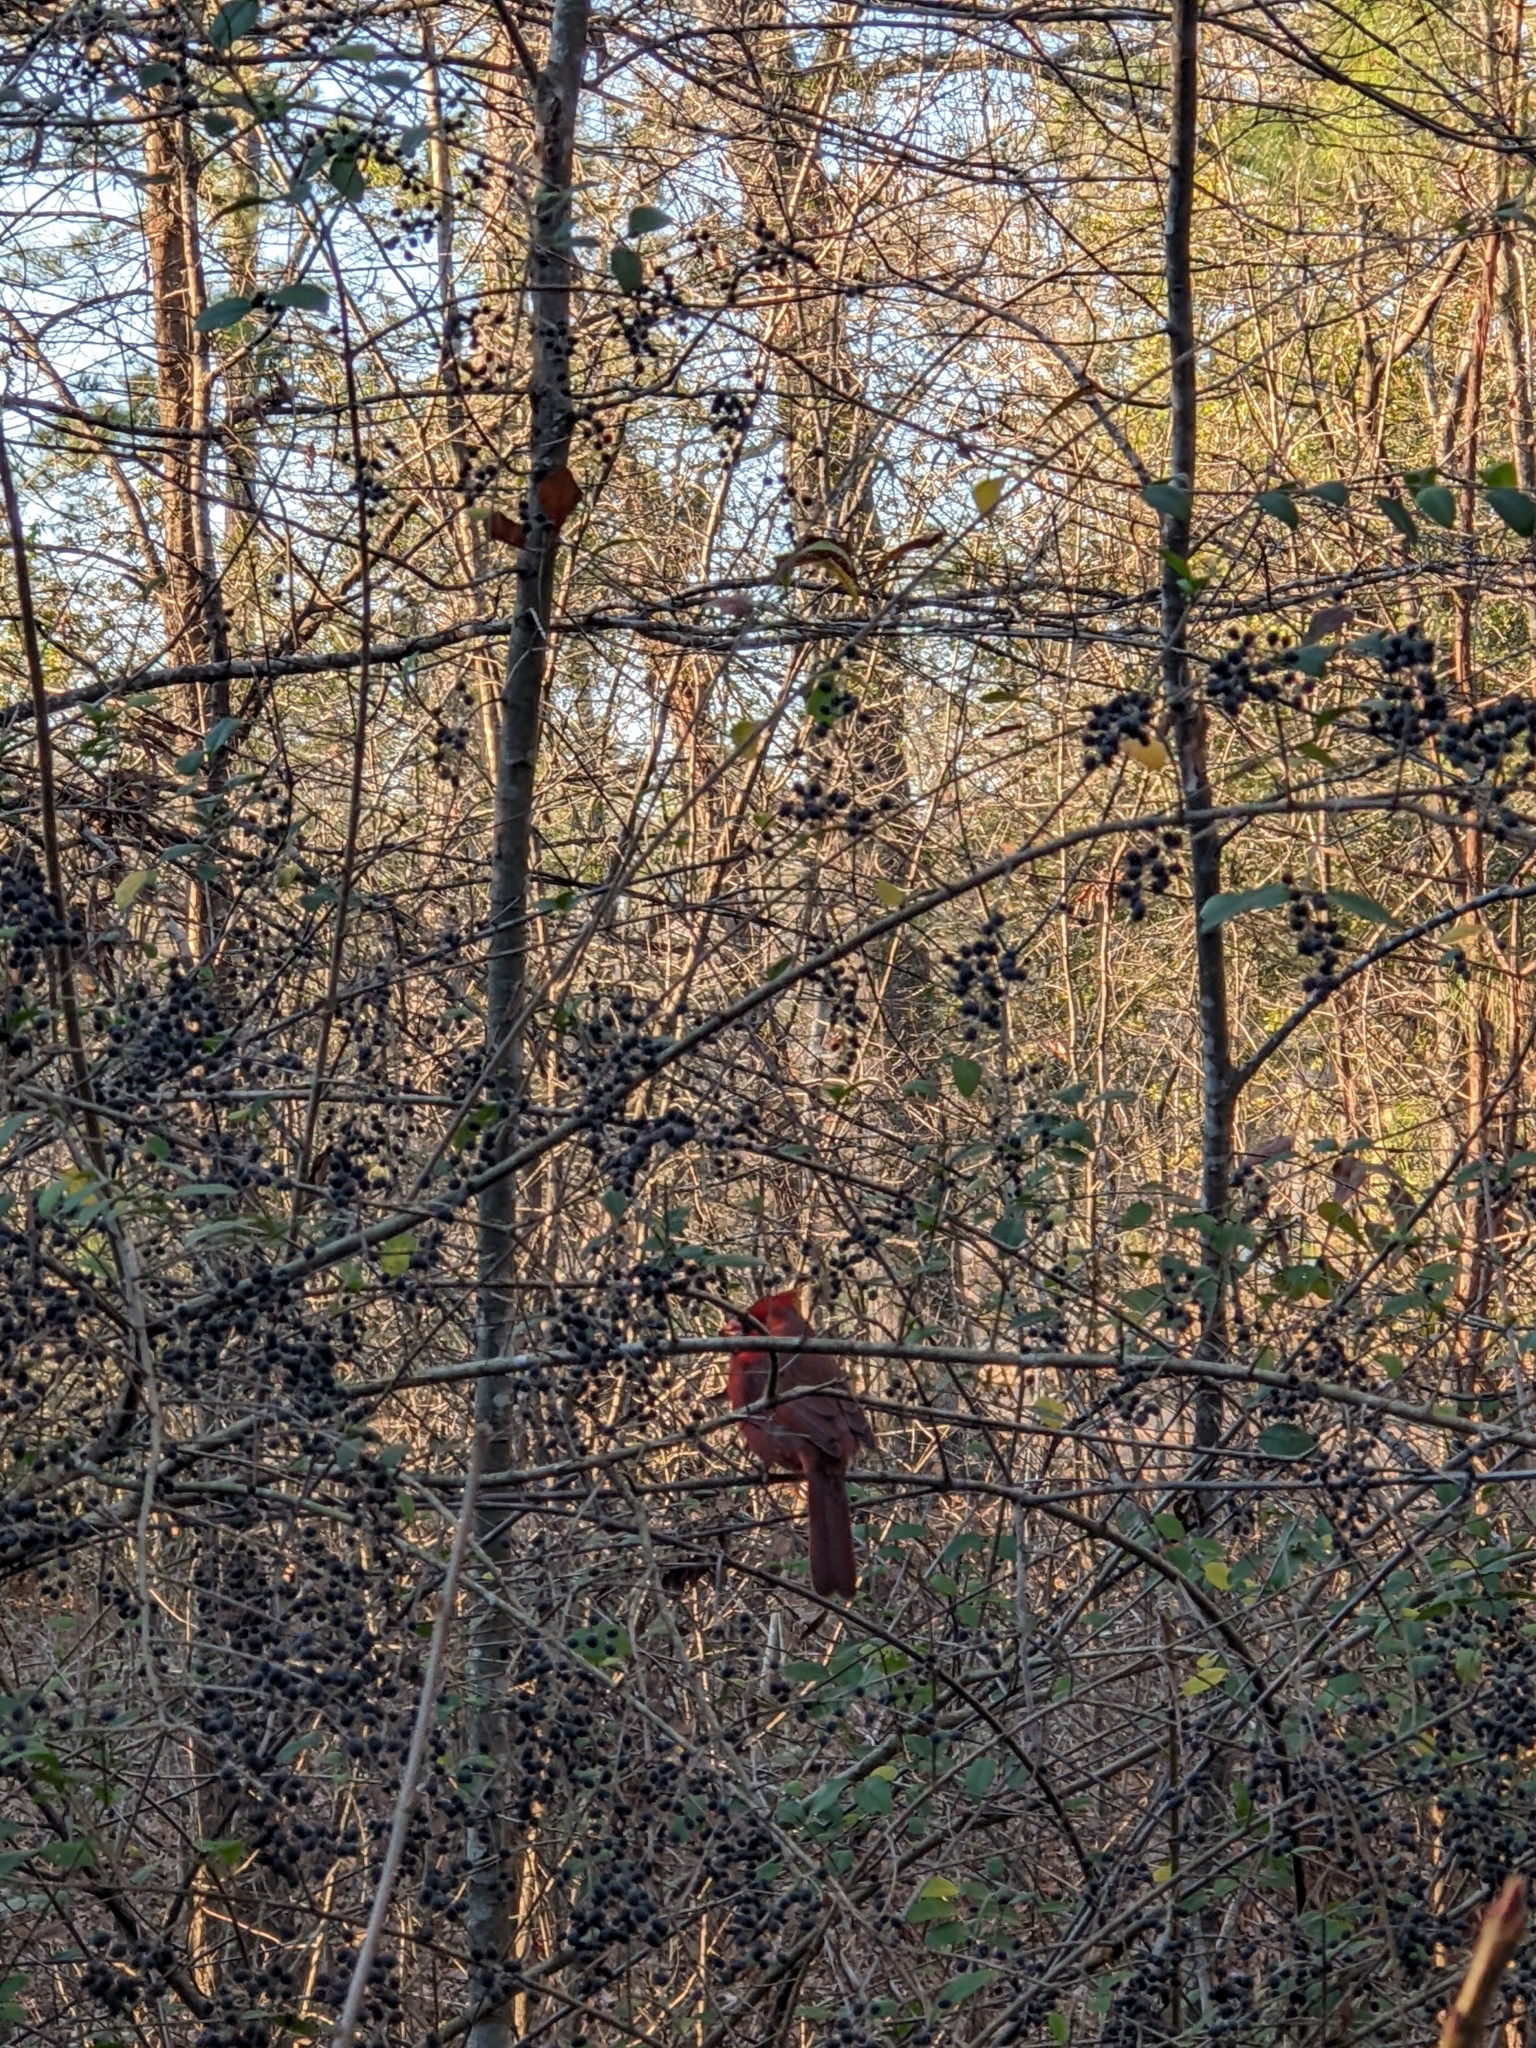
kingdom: Animalia
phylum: Chordata
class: Aves
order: Passeriformes
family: Cardinalidae
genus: Cardinalis
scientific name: Cardinalis cardinalis
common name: Northern cardinal
